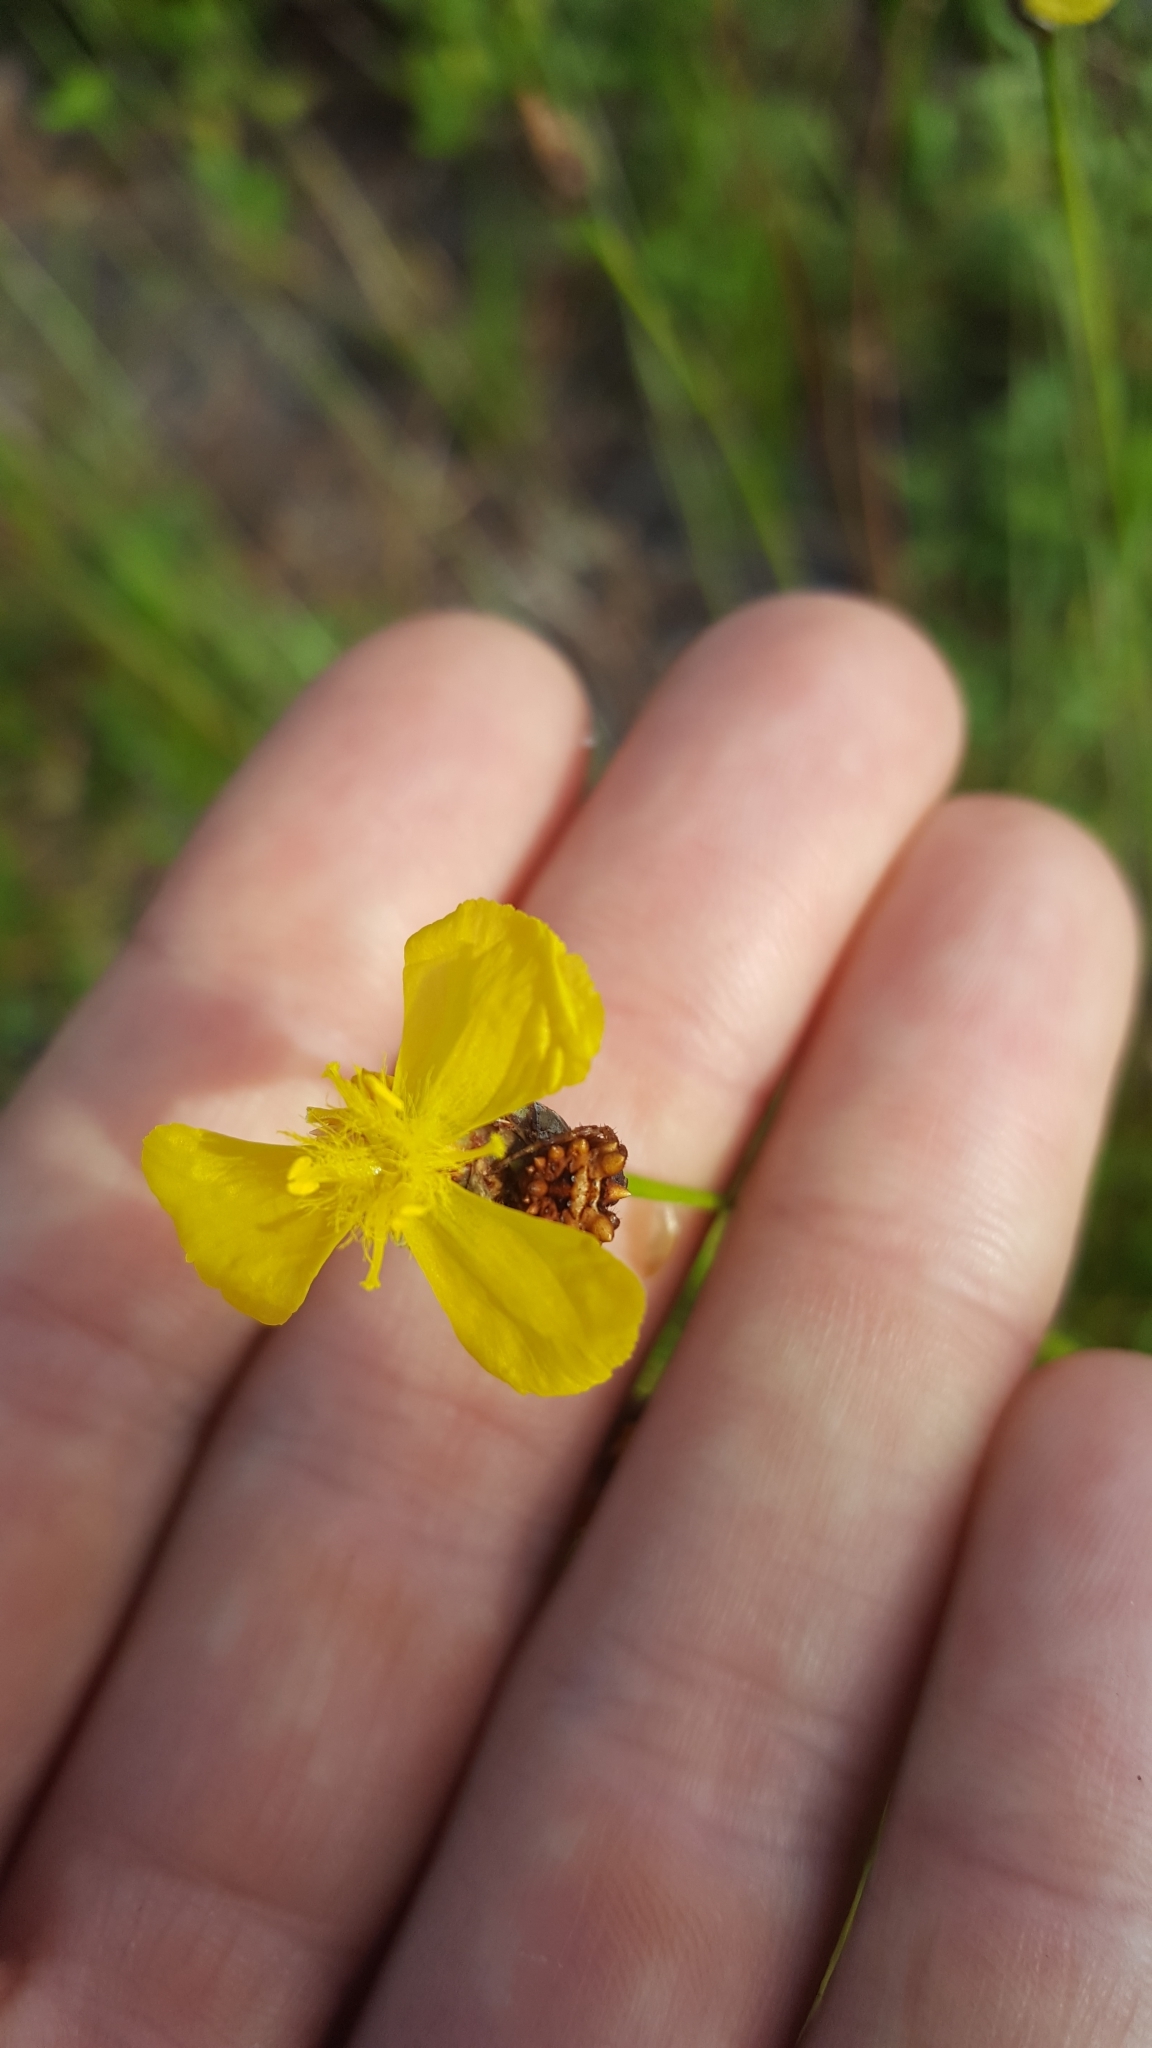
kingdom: Plantae
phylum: Tracheophyta
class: Liliopsida
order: Poales
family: Xyridaceae
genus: Xyris
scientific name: Xyris elliottii
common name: Elliot's yelloweyed grass
